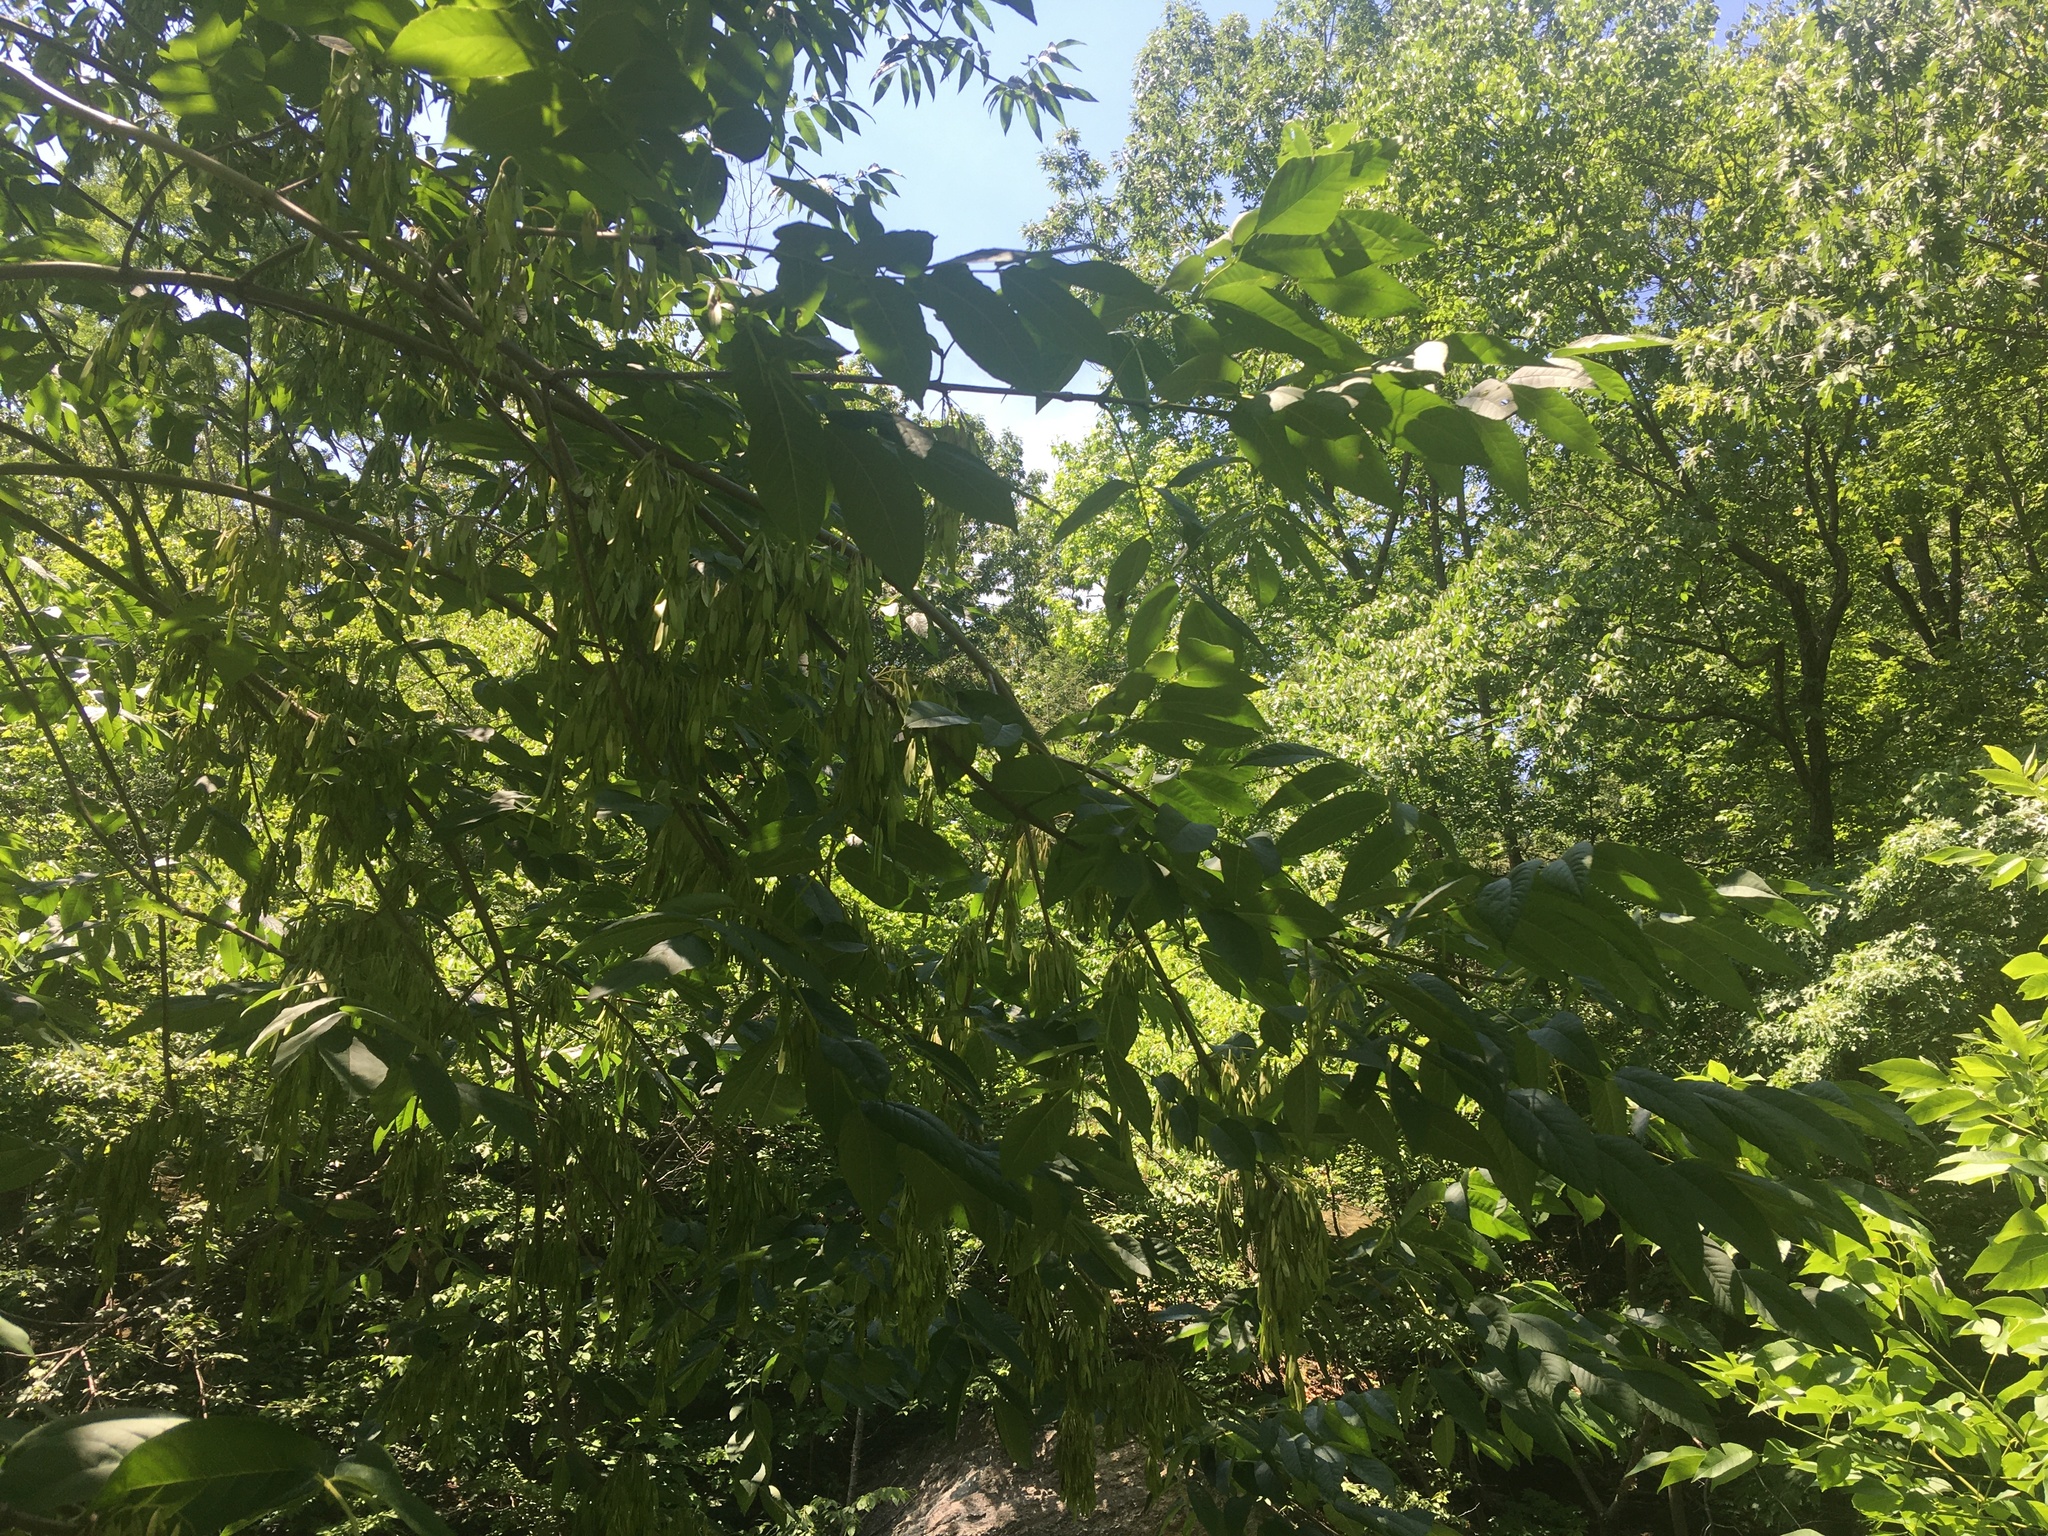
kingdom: Plantae
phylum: Tracheophyta
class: Magnoliopsida
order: Lamiales
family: Oleaceae
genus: Fraxinus
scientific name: Fraxinus americana
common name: White ash
